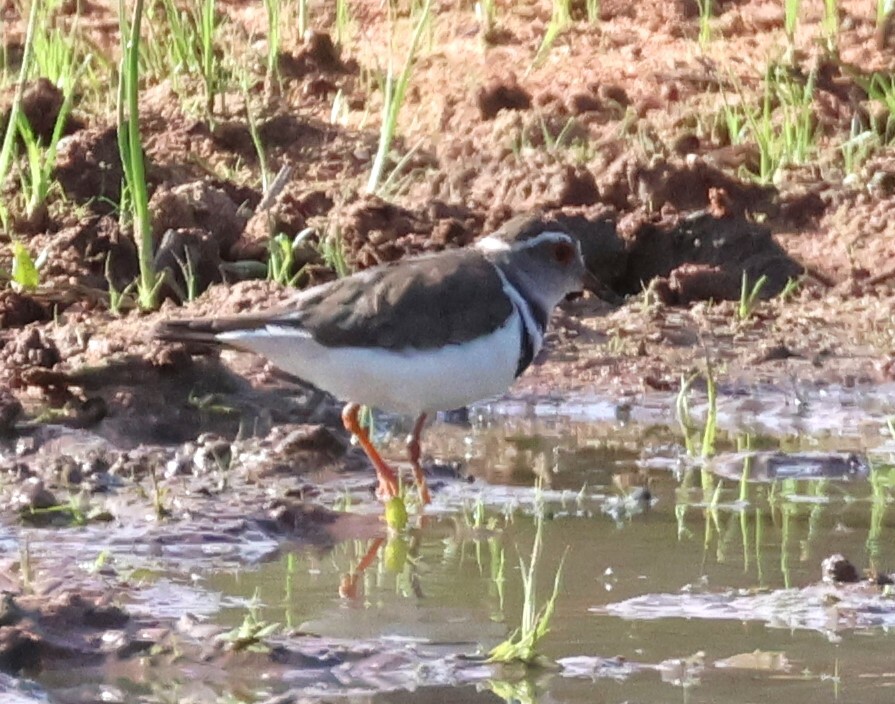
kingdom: Animalia
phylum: Chordata
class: Aves
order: Charadriiformes
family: Charadriidae
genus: Charadrius
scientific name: Charadrius tricollaris
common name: Three-banded plover
